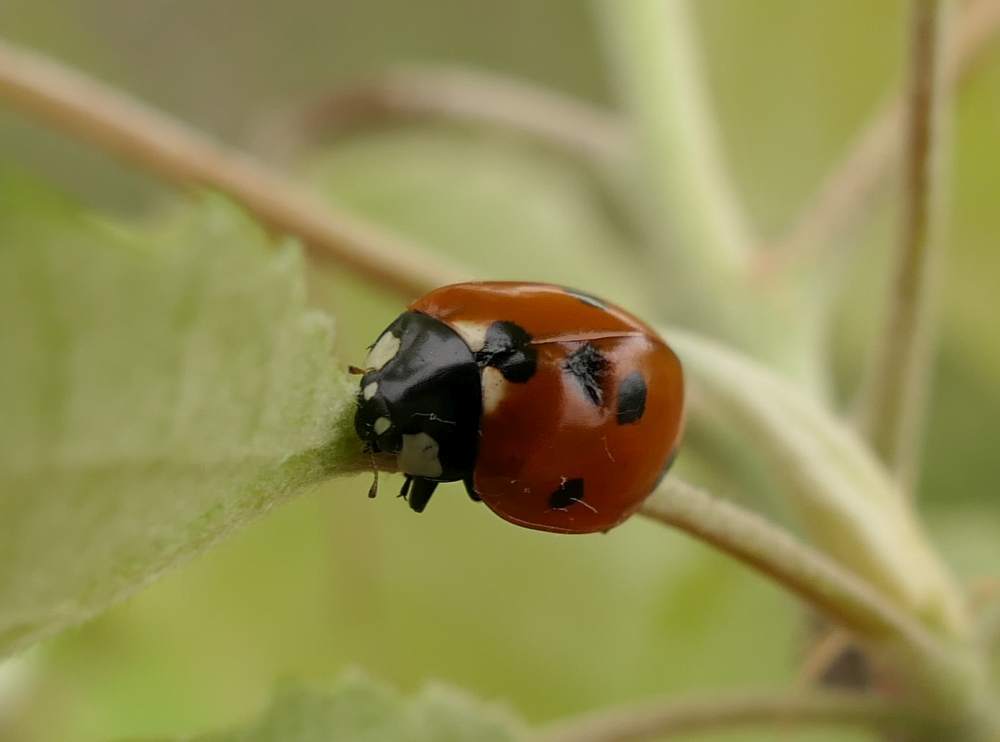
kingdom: Animalia
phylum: Arthropoda
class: Insecta
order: Coleoptera
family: Coccinellidae
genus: Coccinella
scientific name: Coccinella septempunctata
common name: Sevenspotted lady beetle
